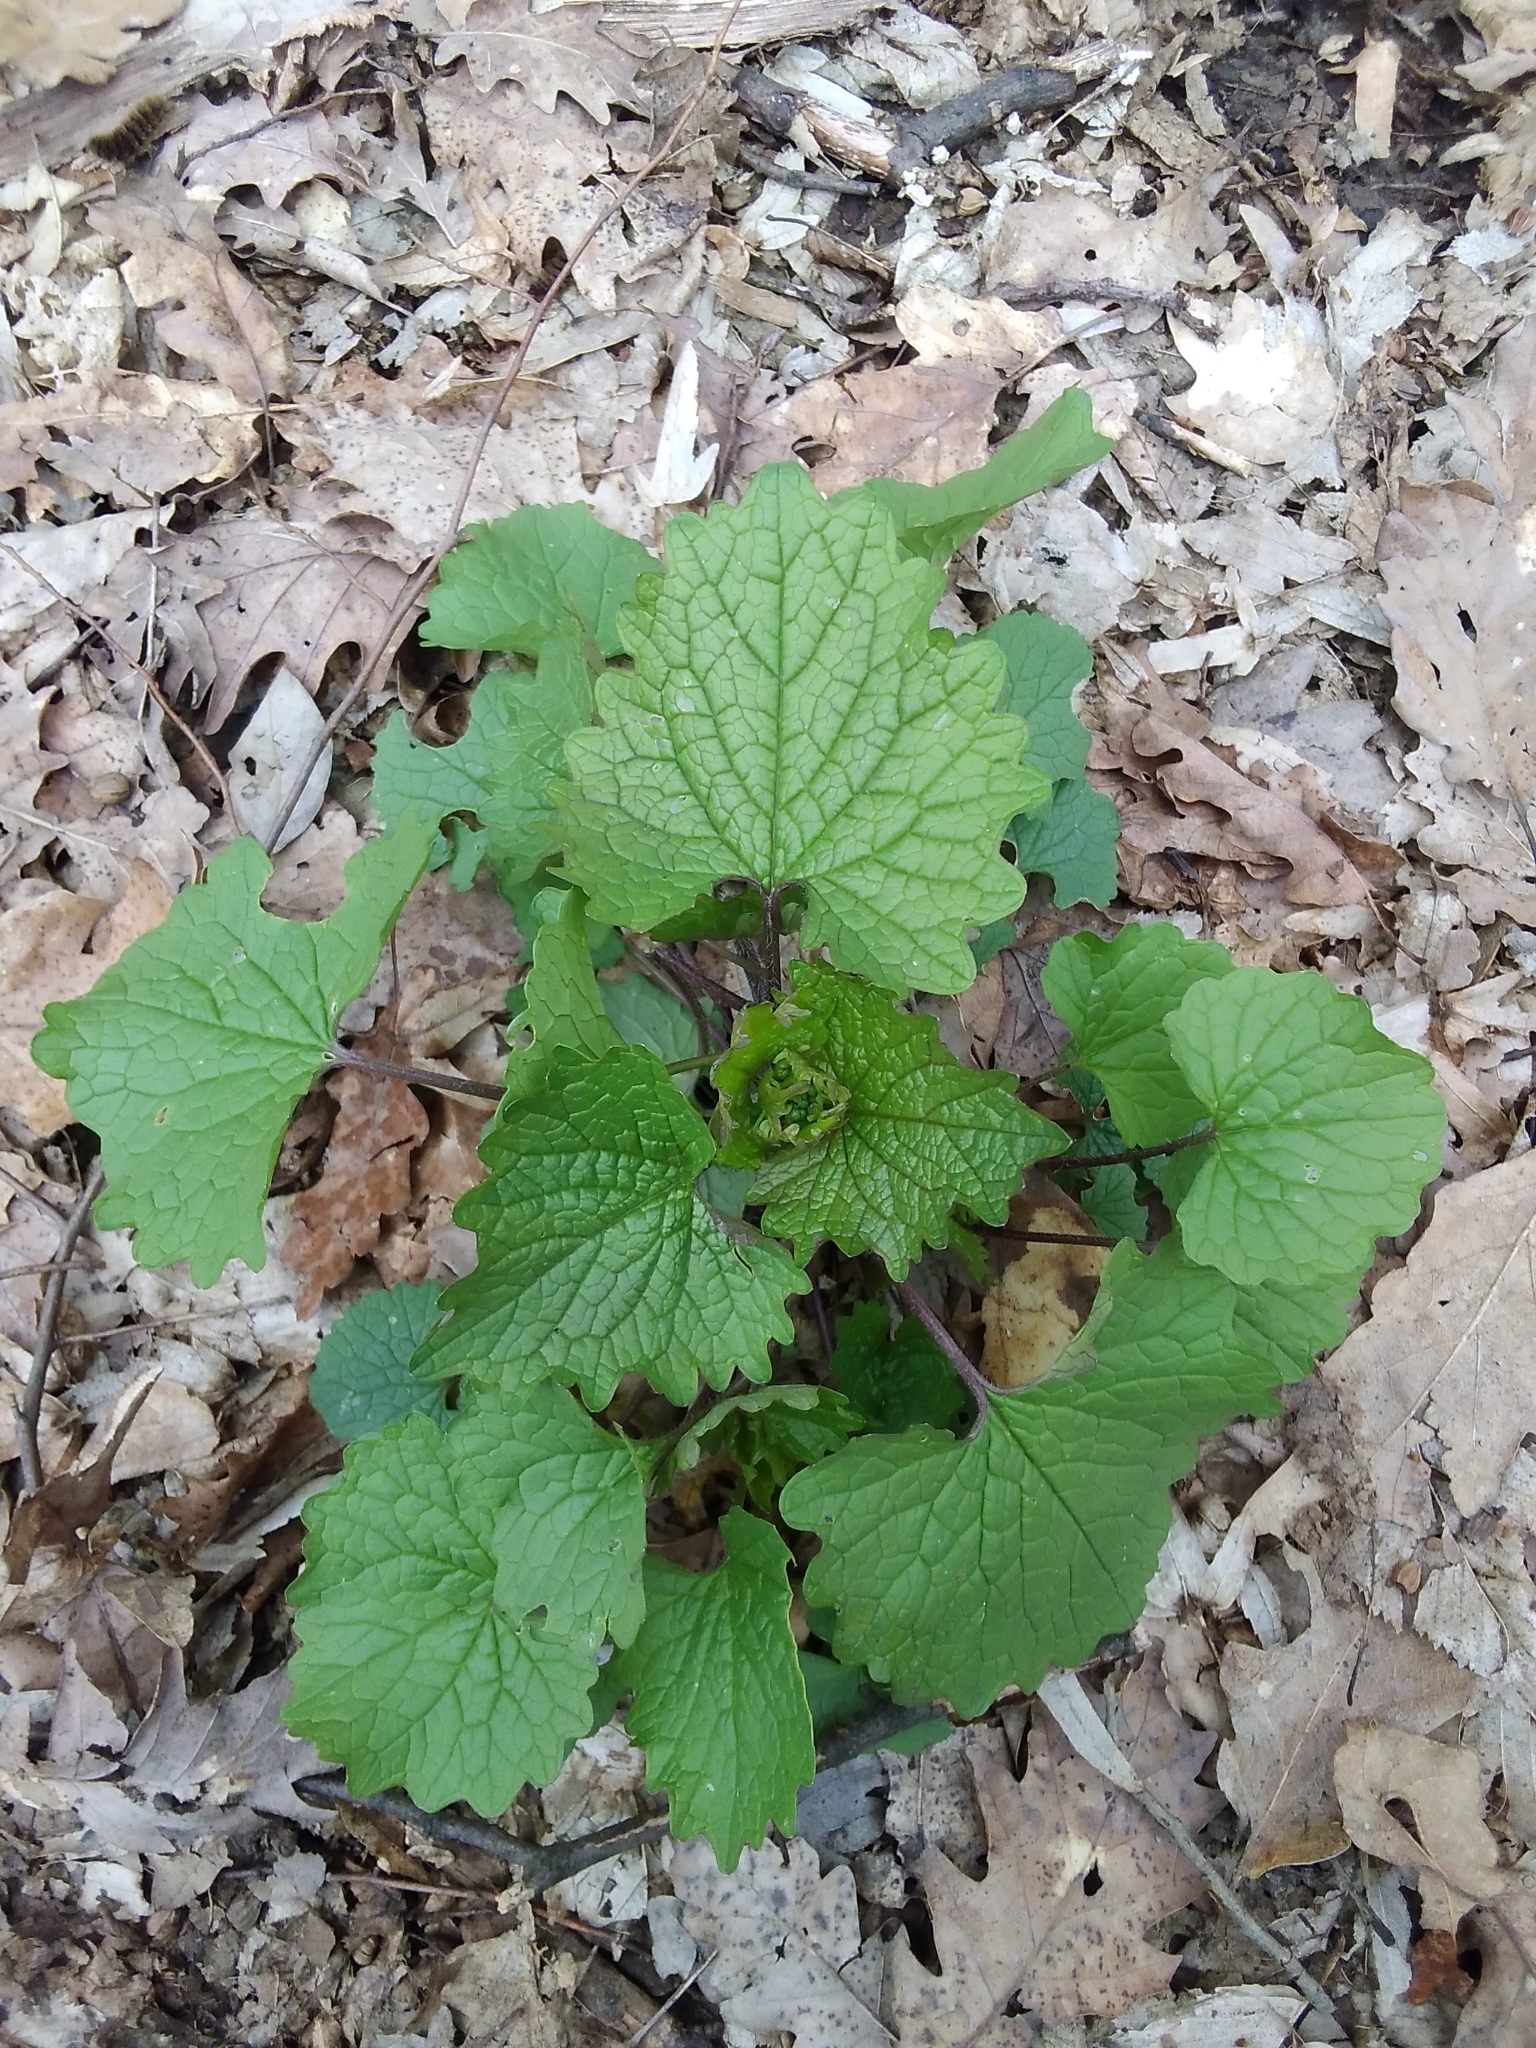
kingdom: Plantae
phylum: Tracheophyta
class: Magnoliopsida
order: Brassicales
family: Brassicaceae
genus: Alliaria
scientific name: Alliaria petiolata
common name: Garlic mustard
